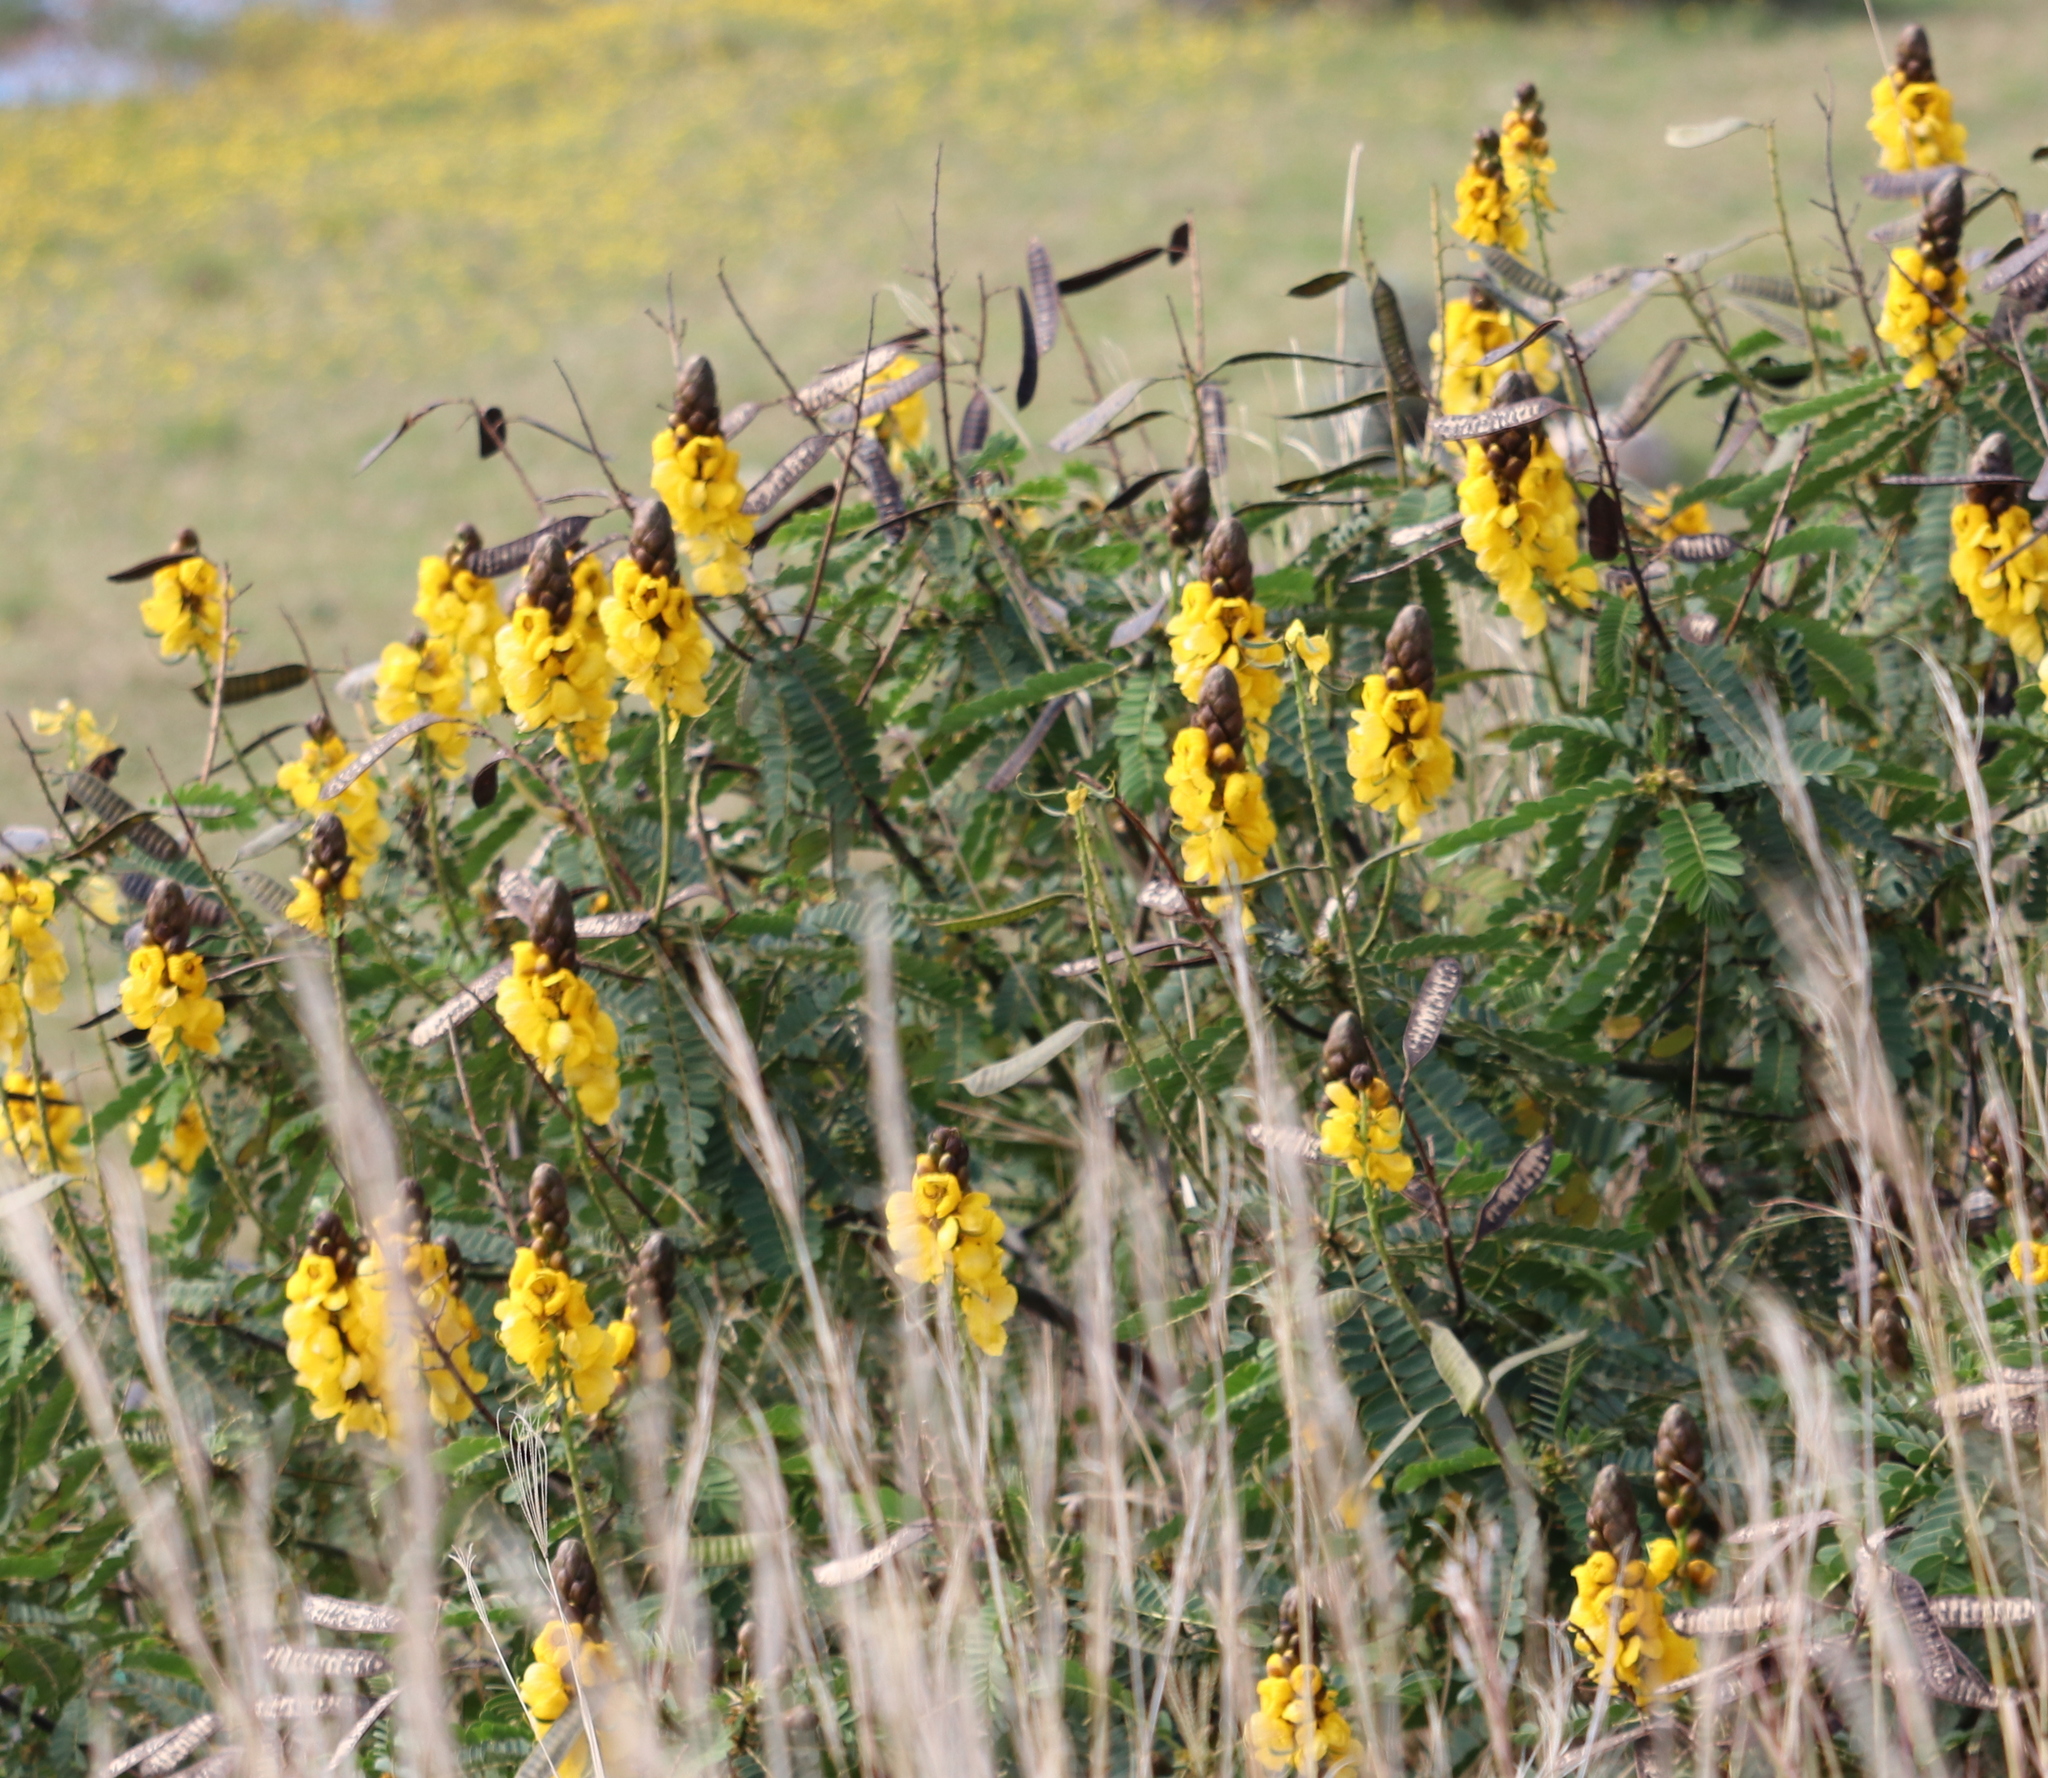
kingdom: Plantae
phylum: Tracheophyta
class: Magnoliopsida
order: Fabales
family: Fabaceae
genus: Senna
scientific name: Senna didymobotrya
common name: African senna
